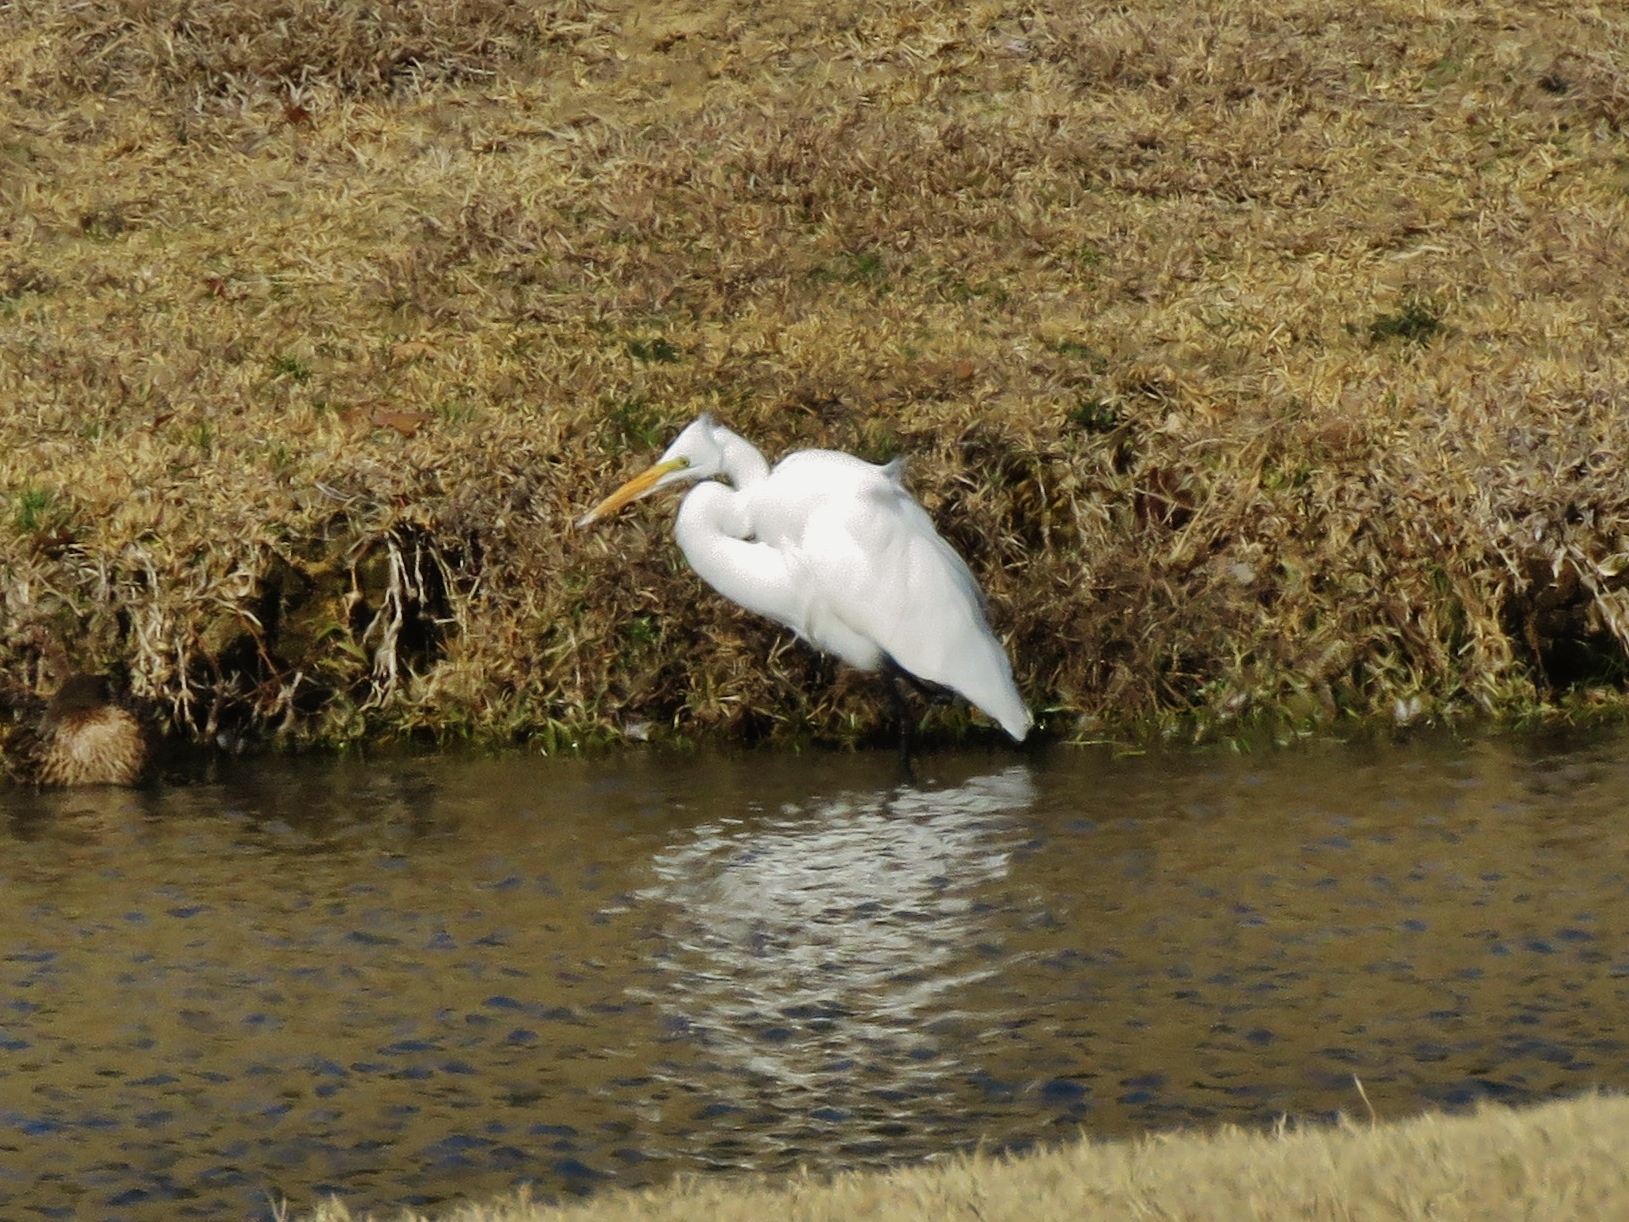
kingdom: Animalia
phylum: Chordata
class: Aves
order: Pelecaniformes
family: Ardeidae
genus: Ardea
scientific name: Ardea alba
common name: Great egret
